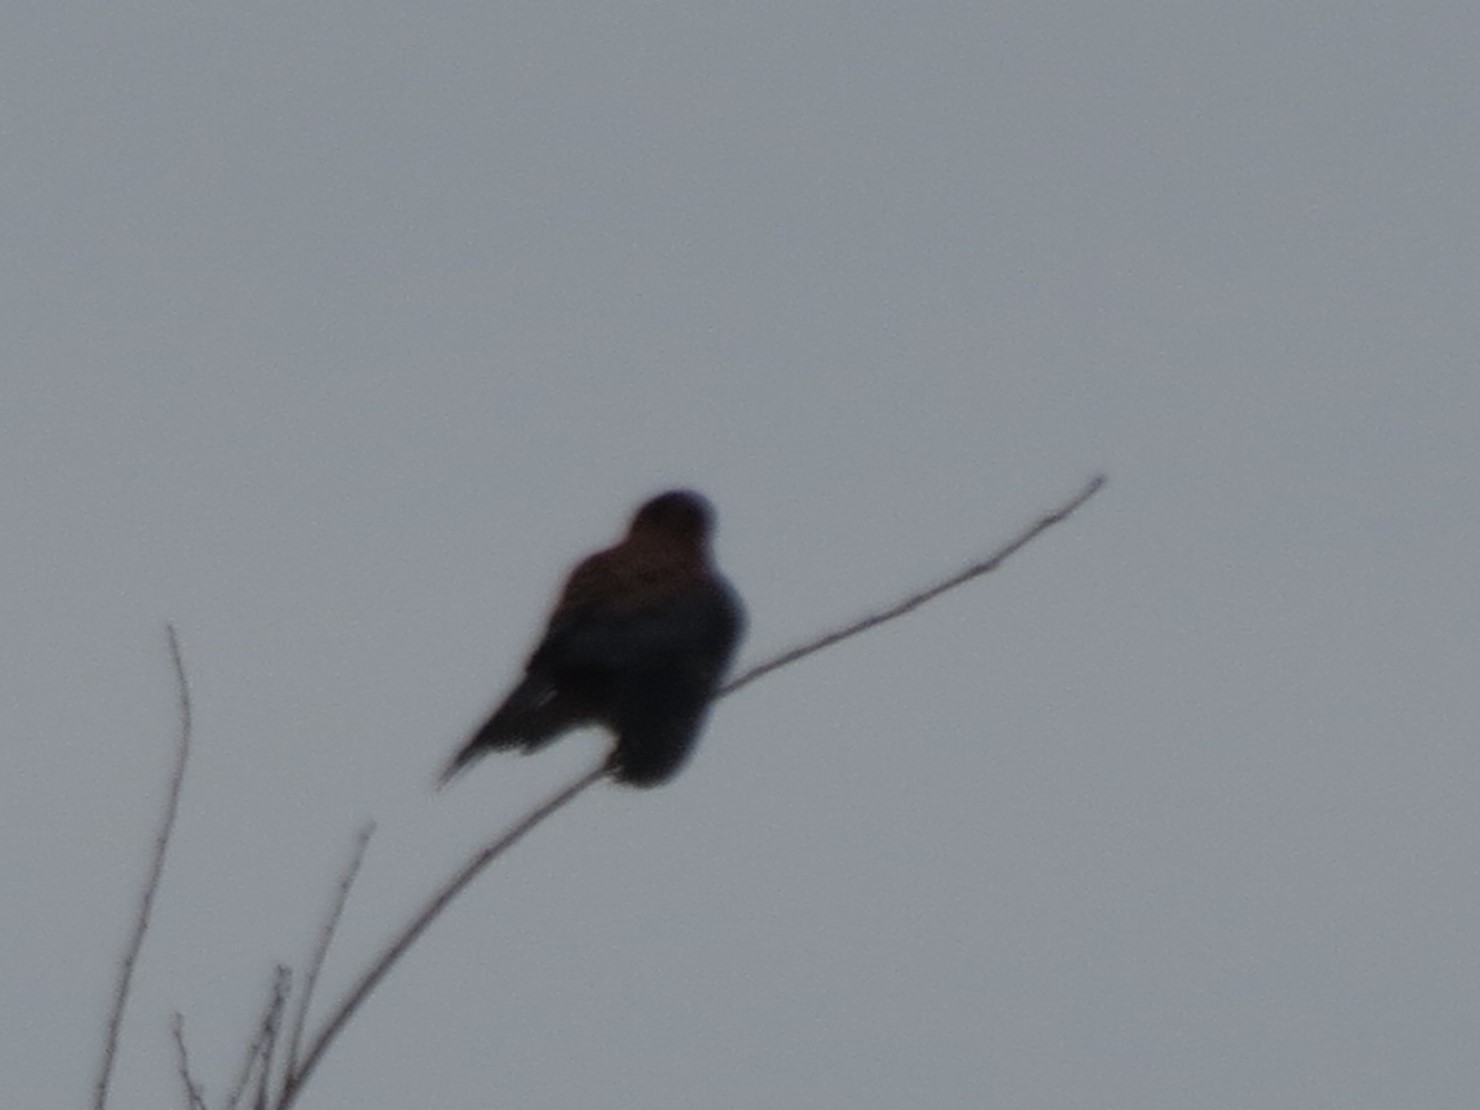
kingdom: Animalia
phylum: Chordata
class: Aves
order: Falconiformes
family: Falconidae
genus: Falco
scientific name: Falco sparverius
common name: American kestrel
